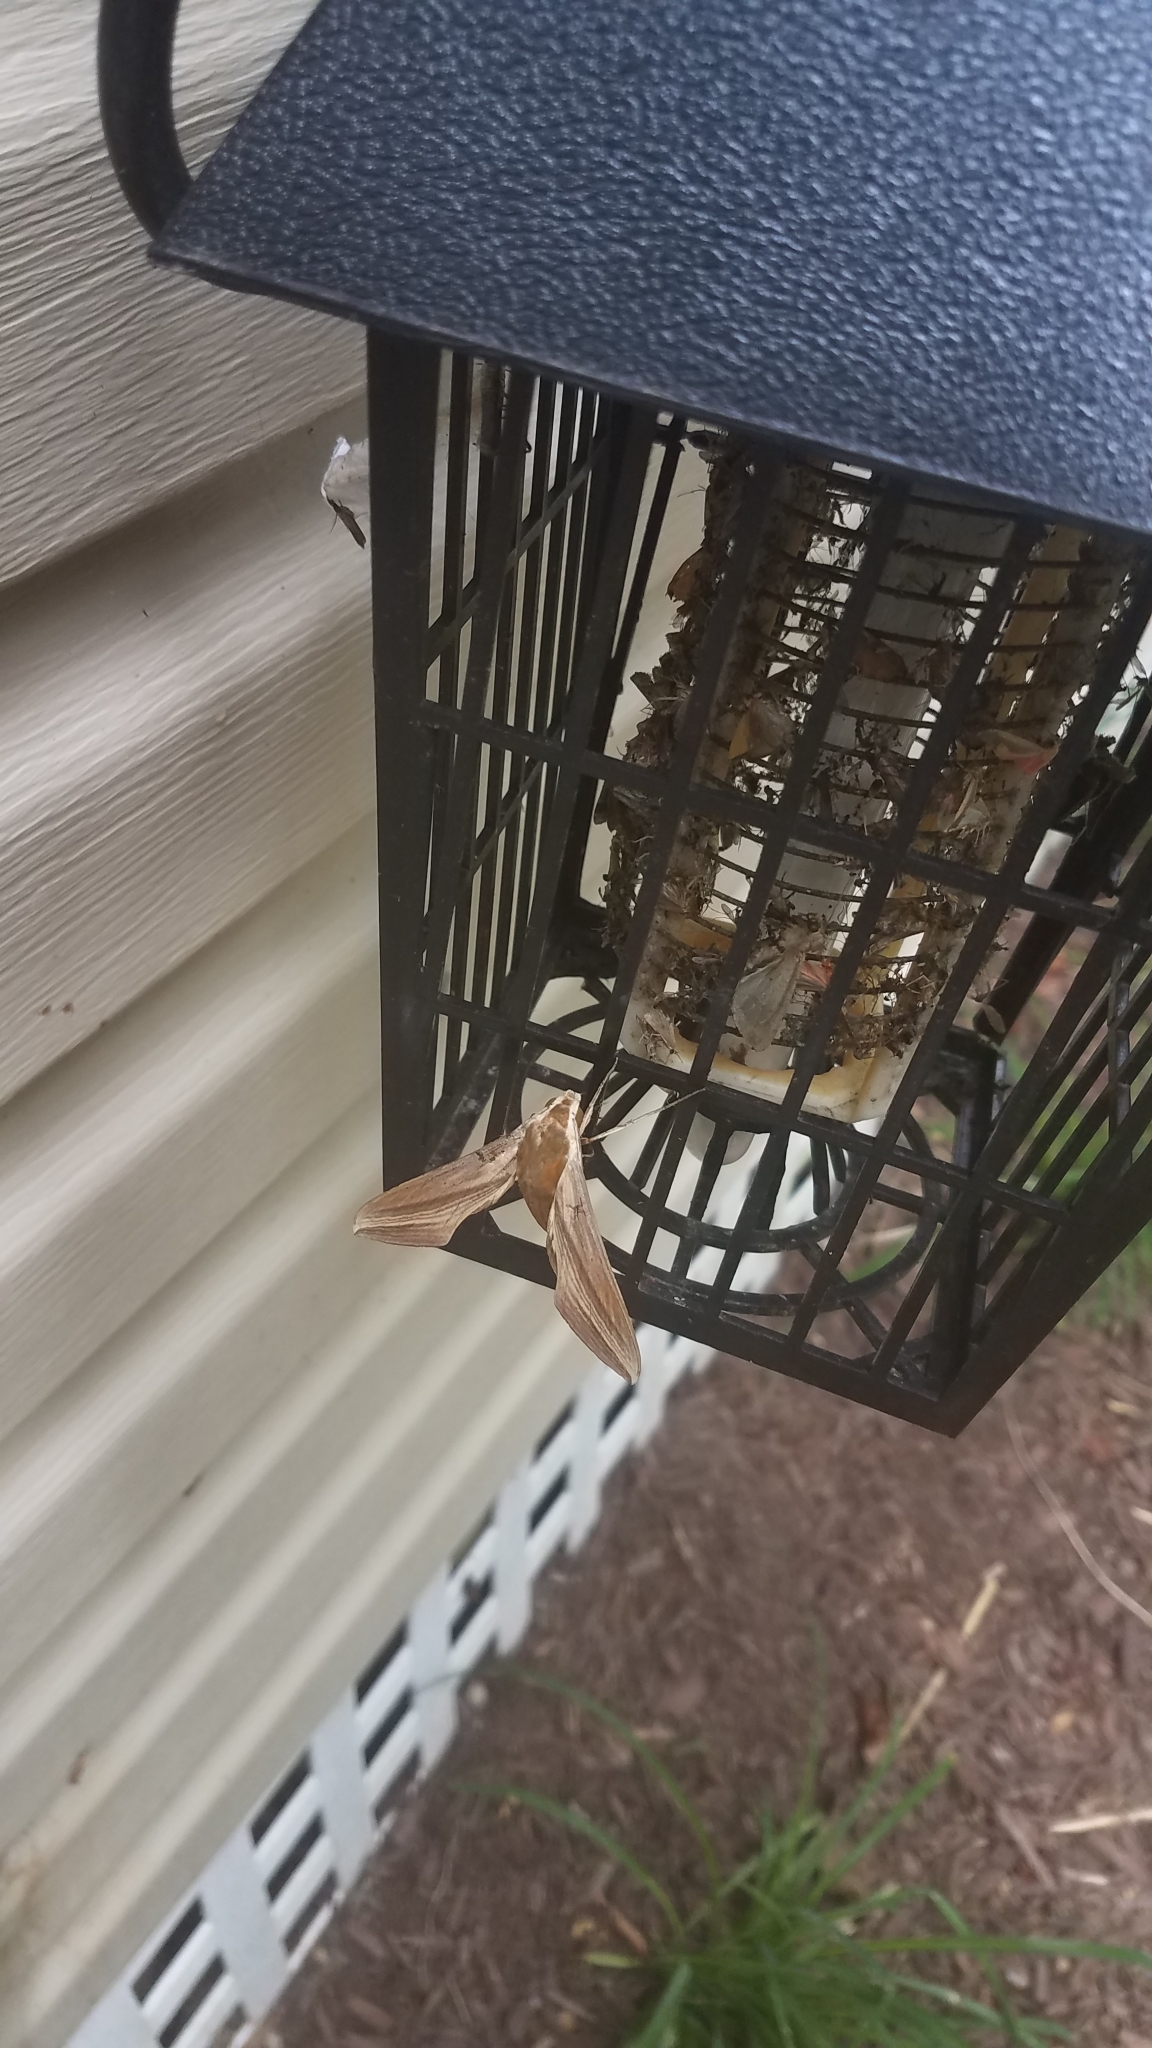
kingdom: Animalia
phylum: Arthropoda
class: Insecta
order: Lepidoptera
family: Sphingidae
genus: Xylophanes
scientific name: Xylophanes tersa
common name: Tersa sphinx
